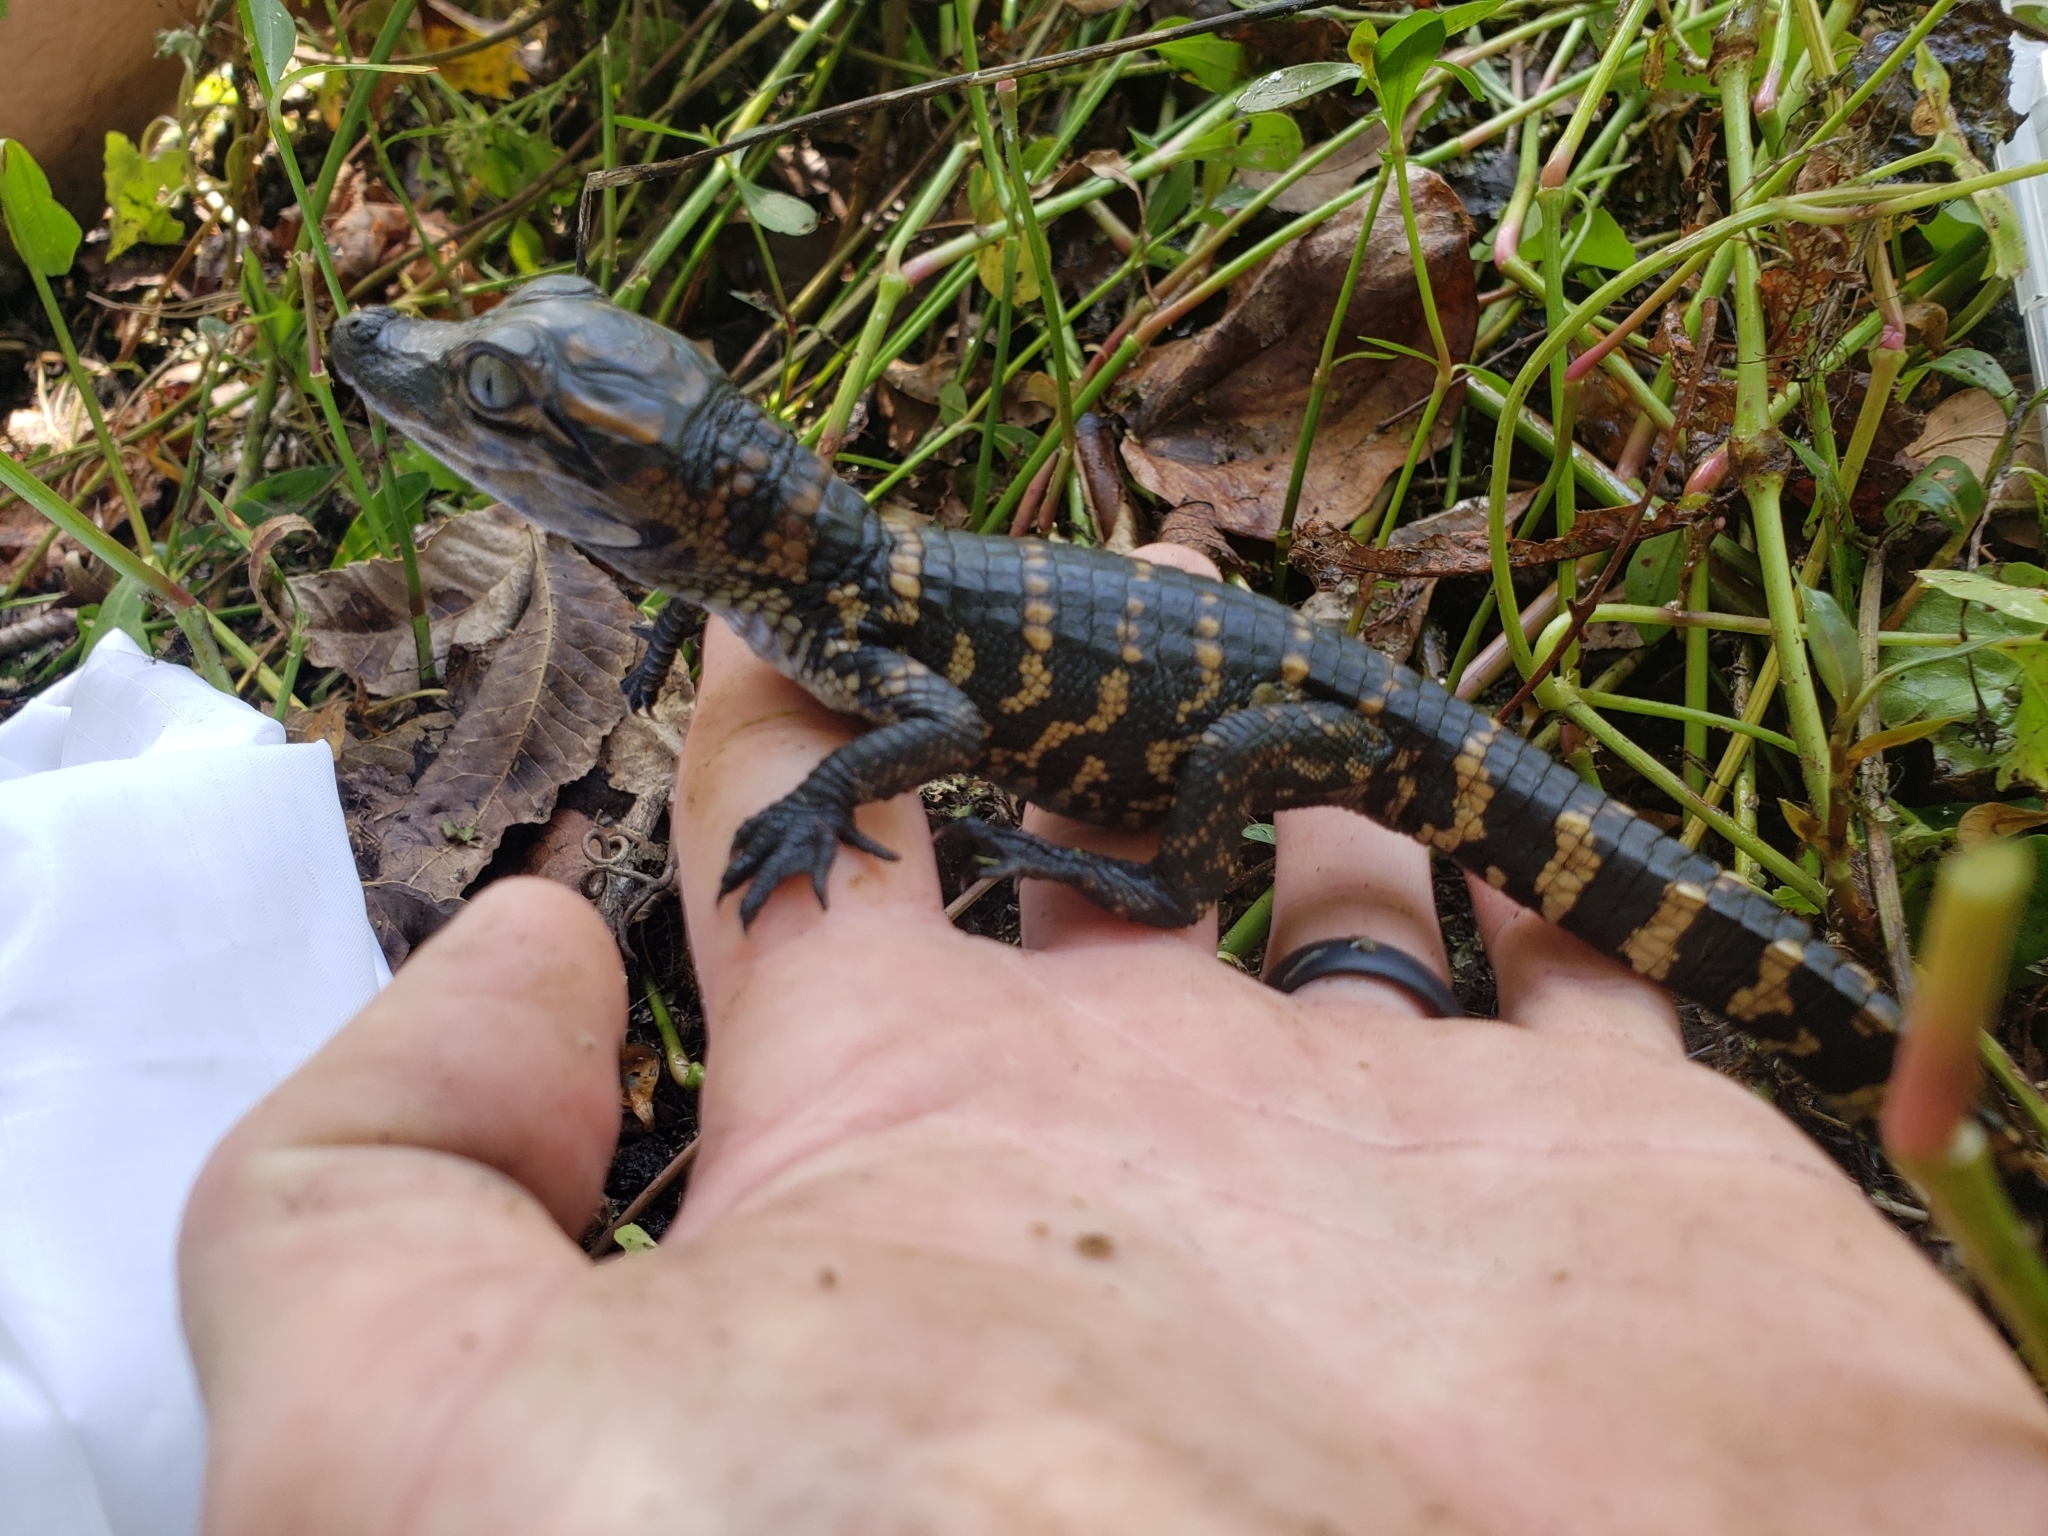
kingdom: Animalia
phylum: Chordata
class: Crocodylia
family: Alligatoridae
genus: Alligator
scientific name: Alligator mississippiensis
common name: American alligator
